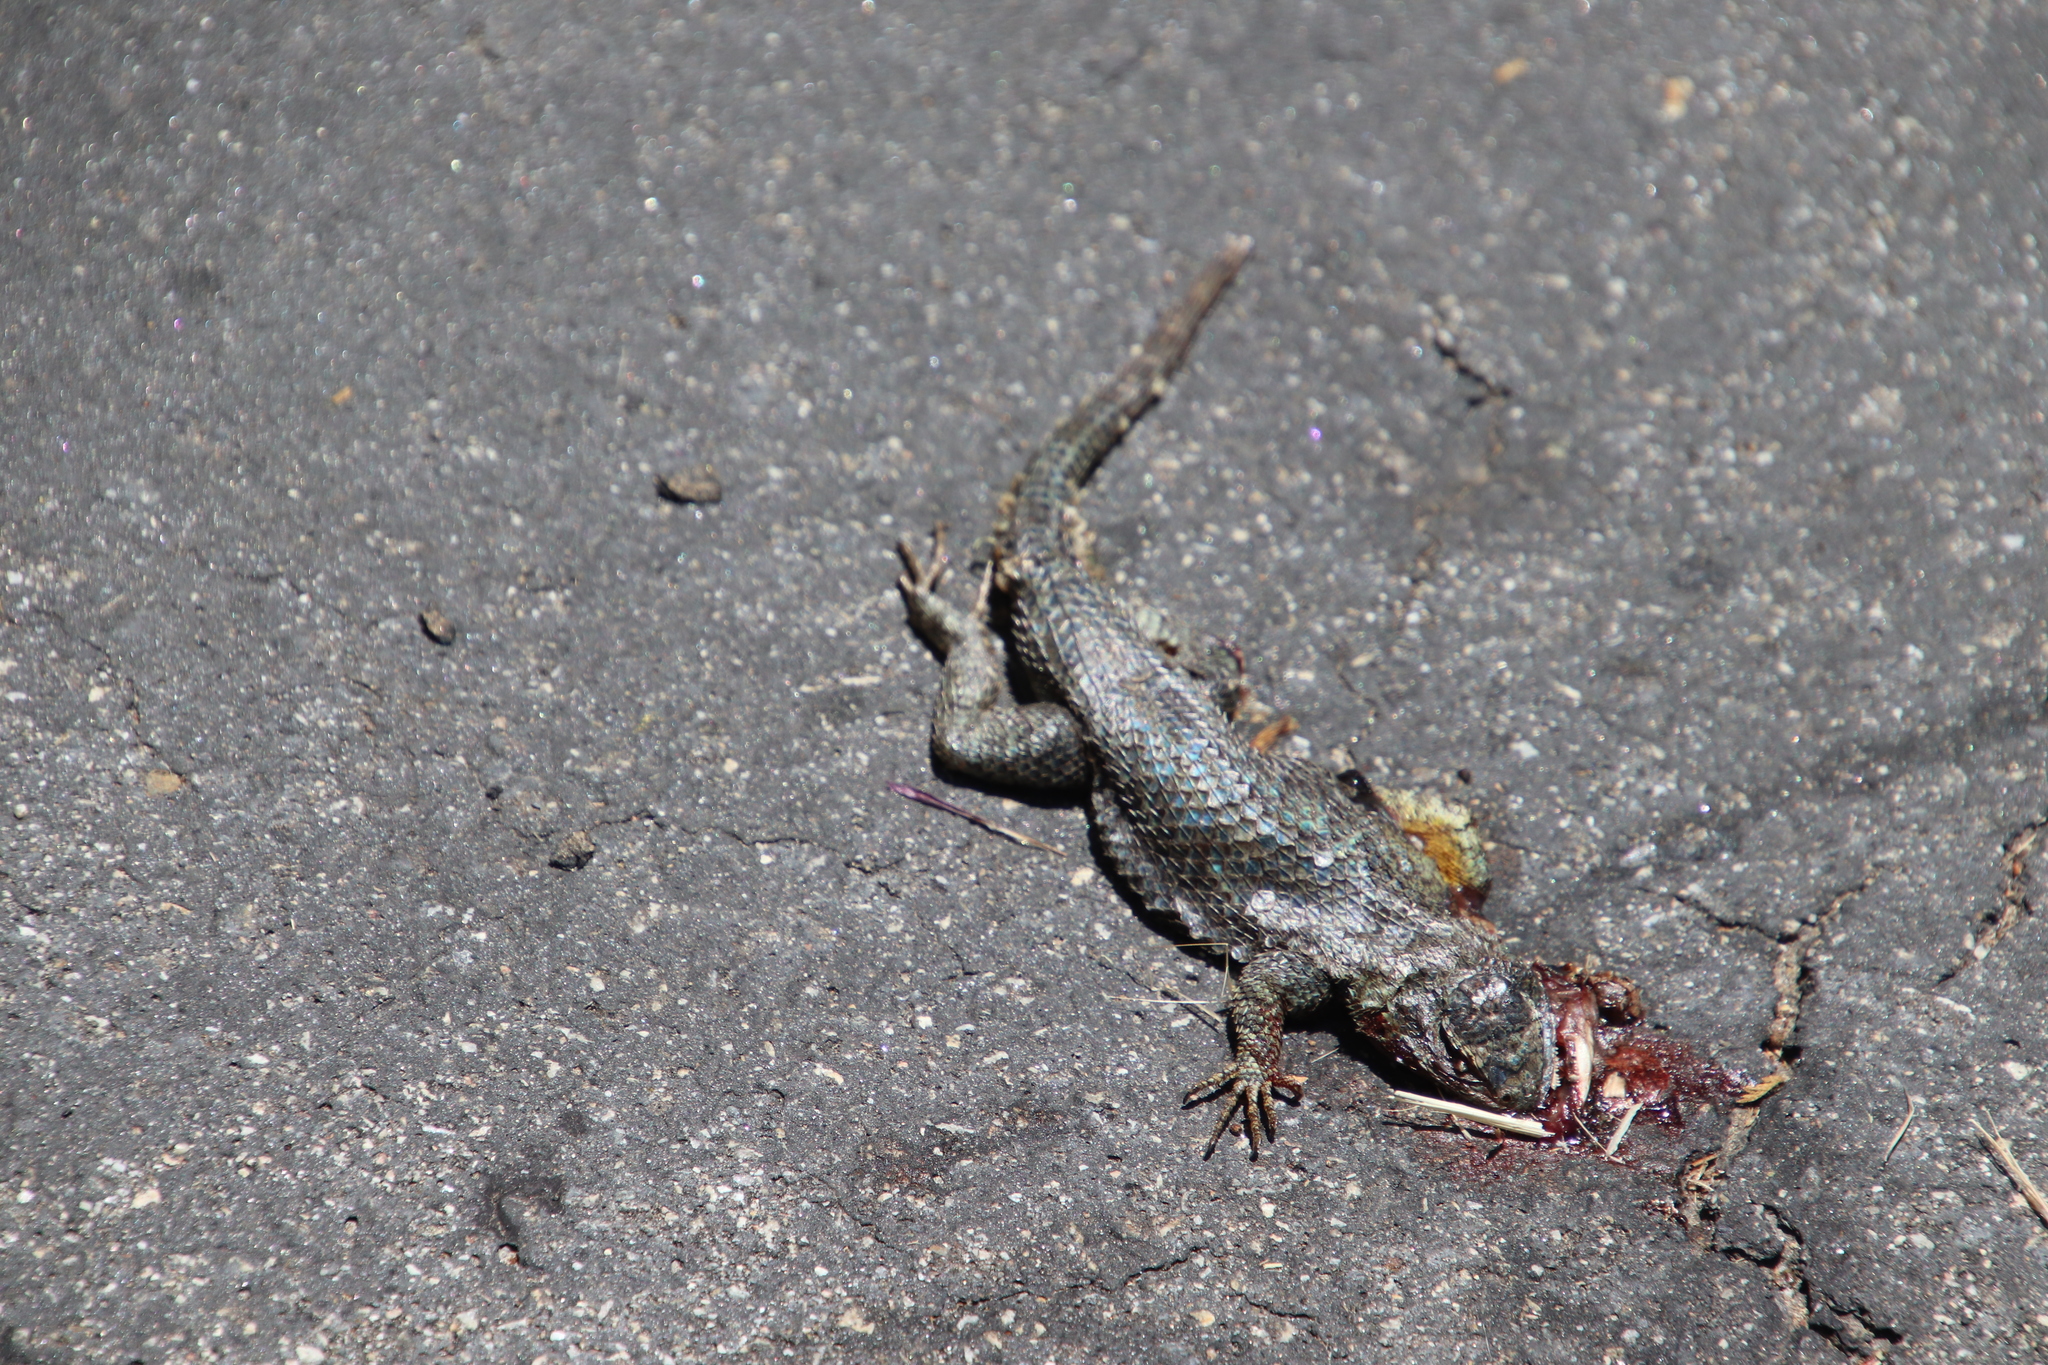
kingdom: Animalia
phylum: Chordata
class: Squamata
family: Phrynosomatidae
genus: Sceloporus
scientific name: Sceloporus occidentalis
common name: Western fence lizard
